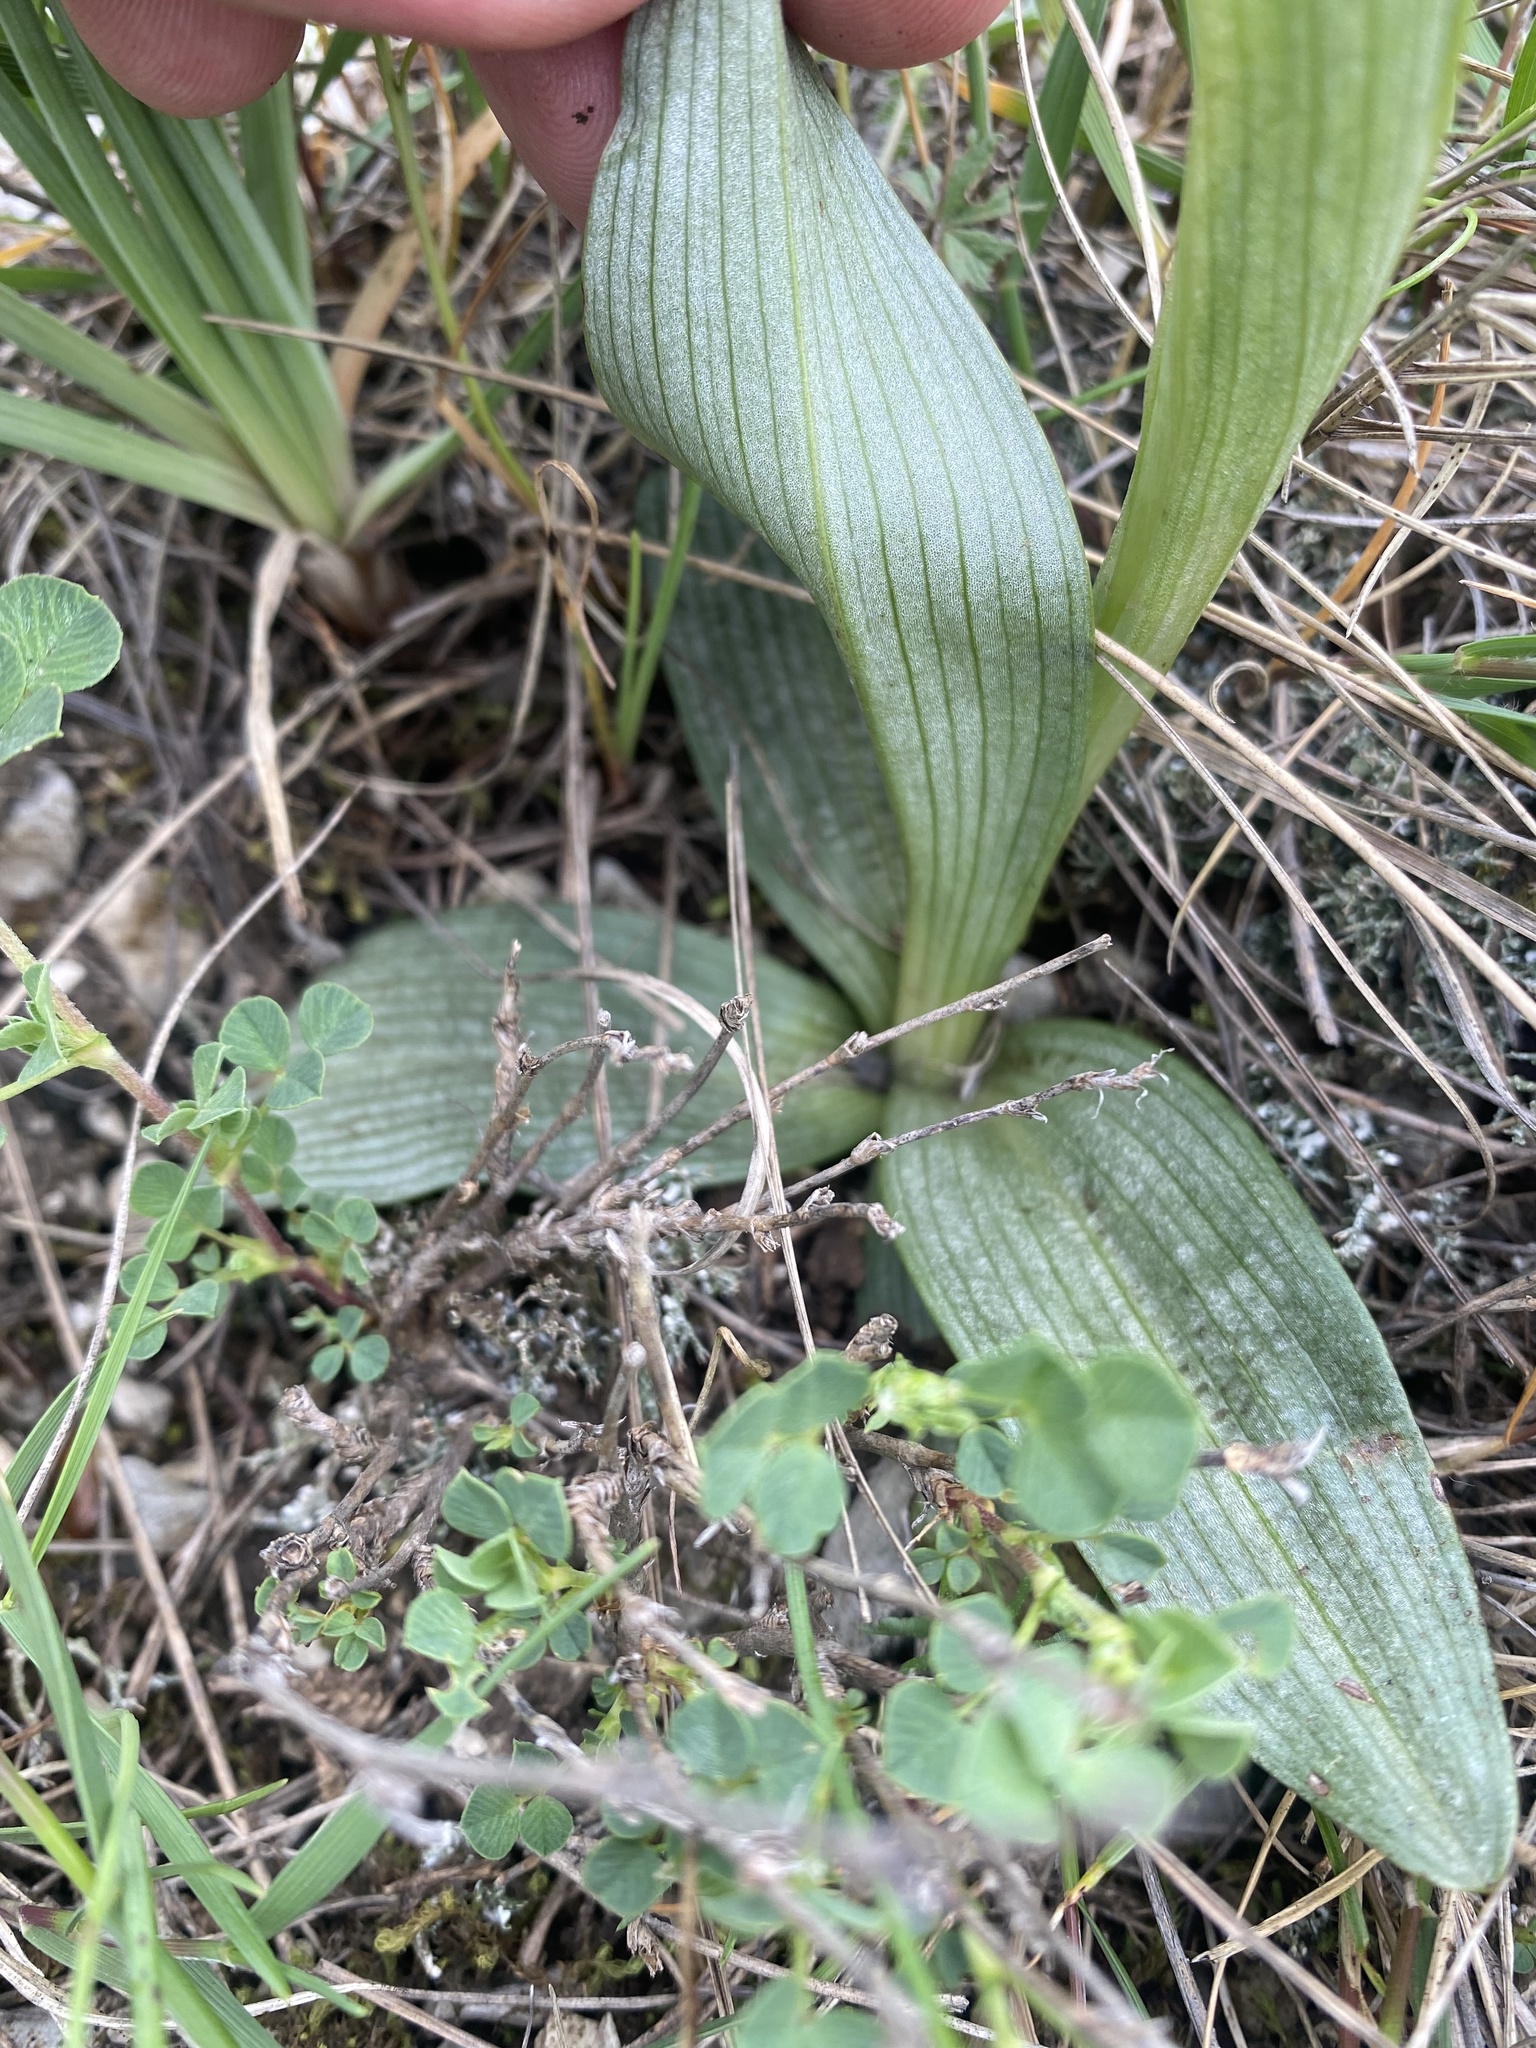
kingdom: Plantae
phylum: Tracheophyta
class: Liliopsida
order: Asparagales
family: Orchidaceae
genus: Neotinea
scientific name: Neotinea tridentata
